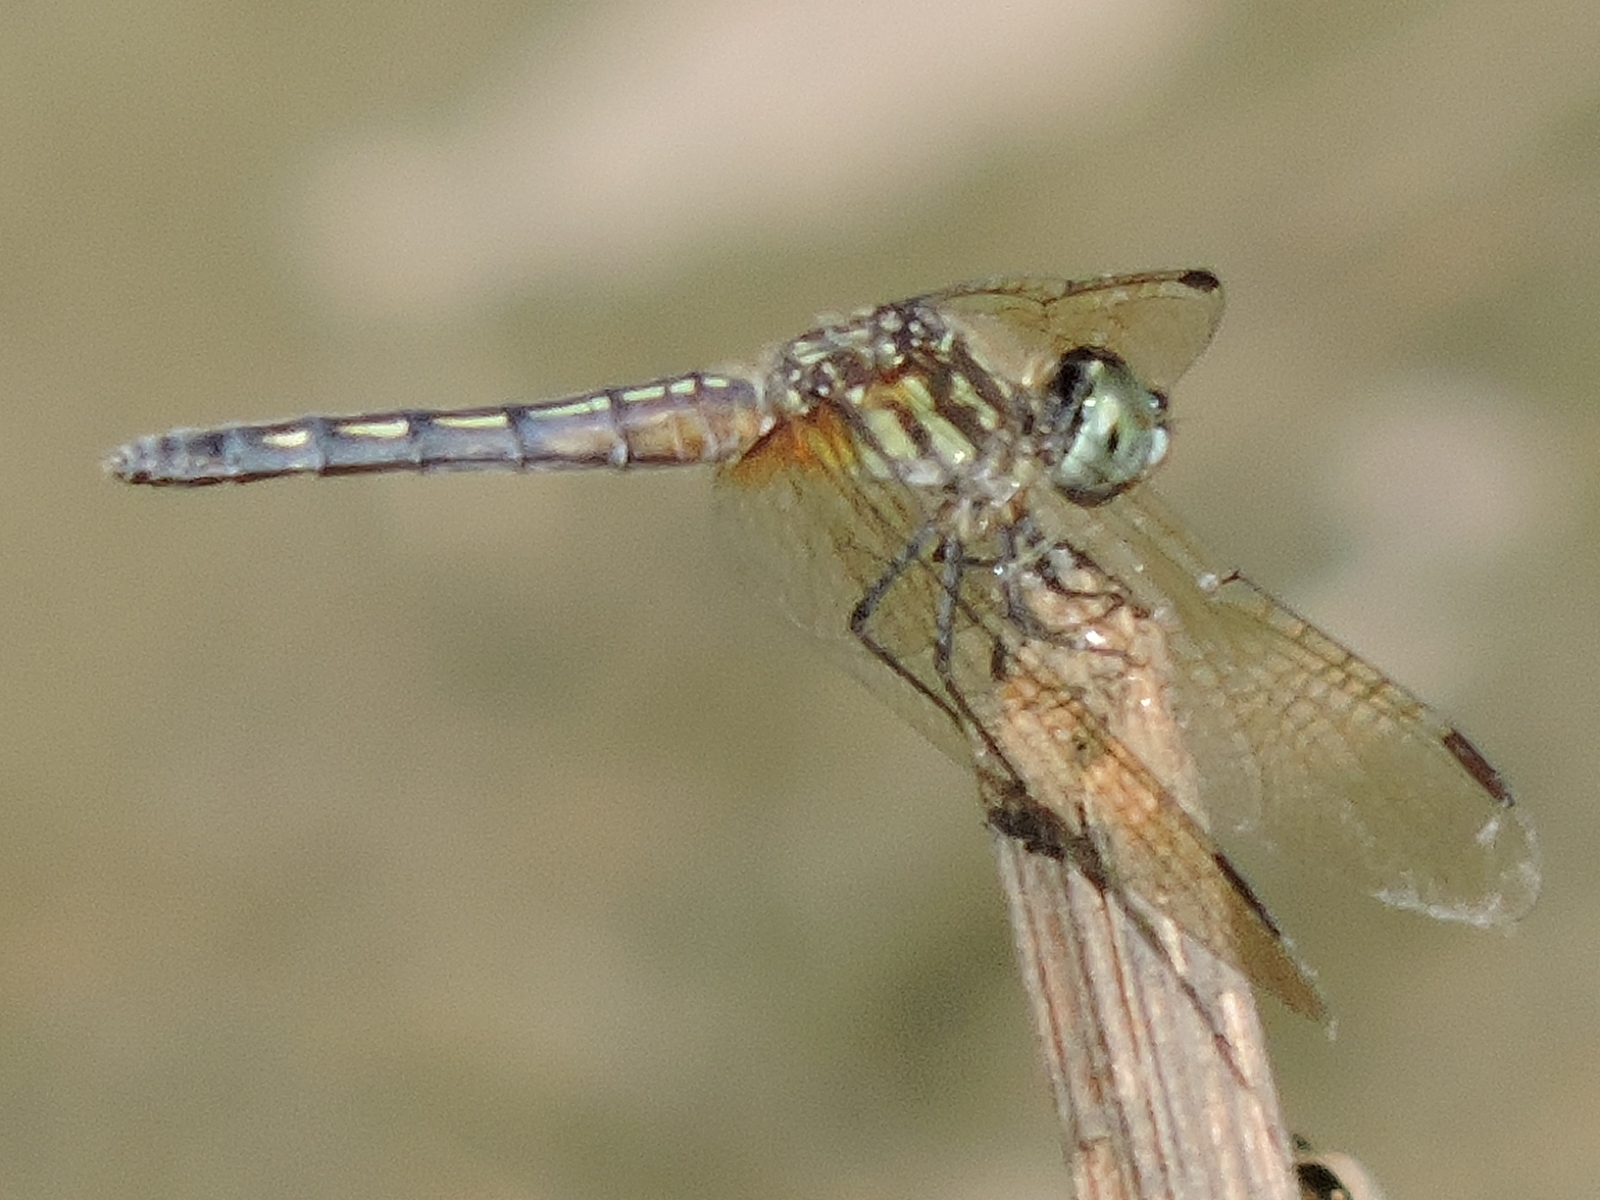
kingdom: Animalia
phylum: Arthropoda
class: Insecta
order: Odonata
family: Libellulidae
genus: Pachydiplax
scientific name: Pachydiplax longipennis
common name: Blue dasher
